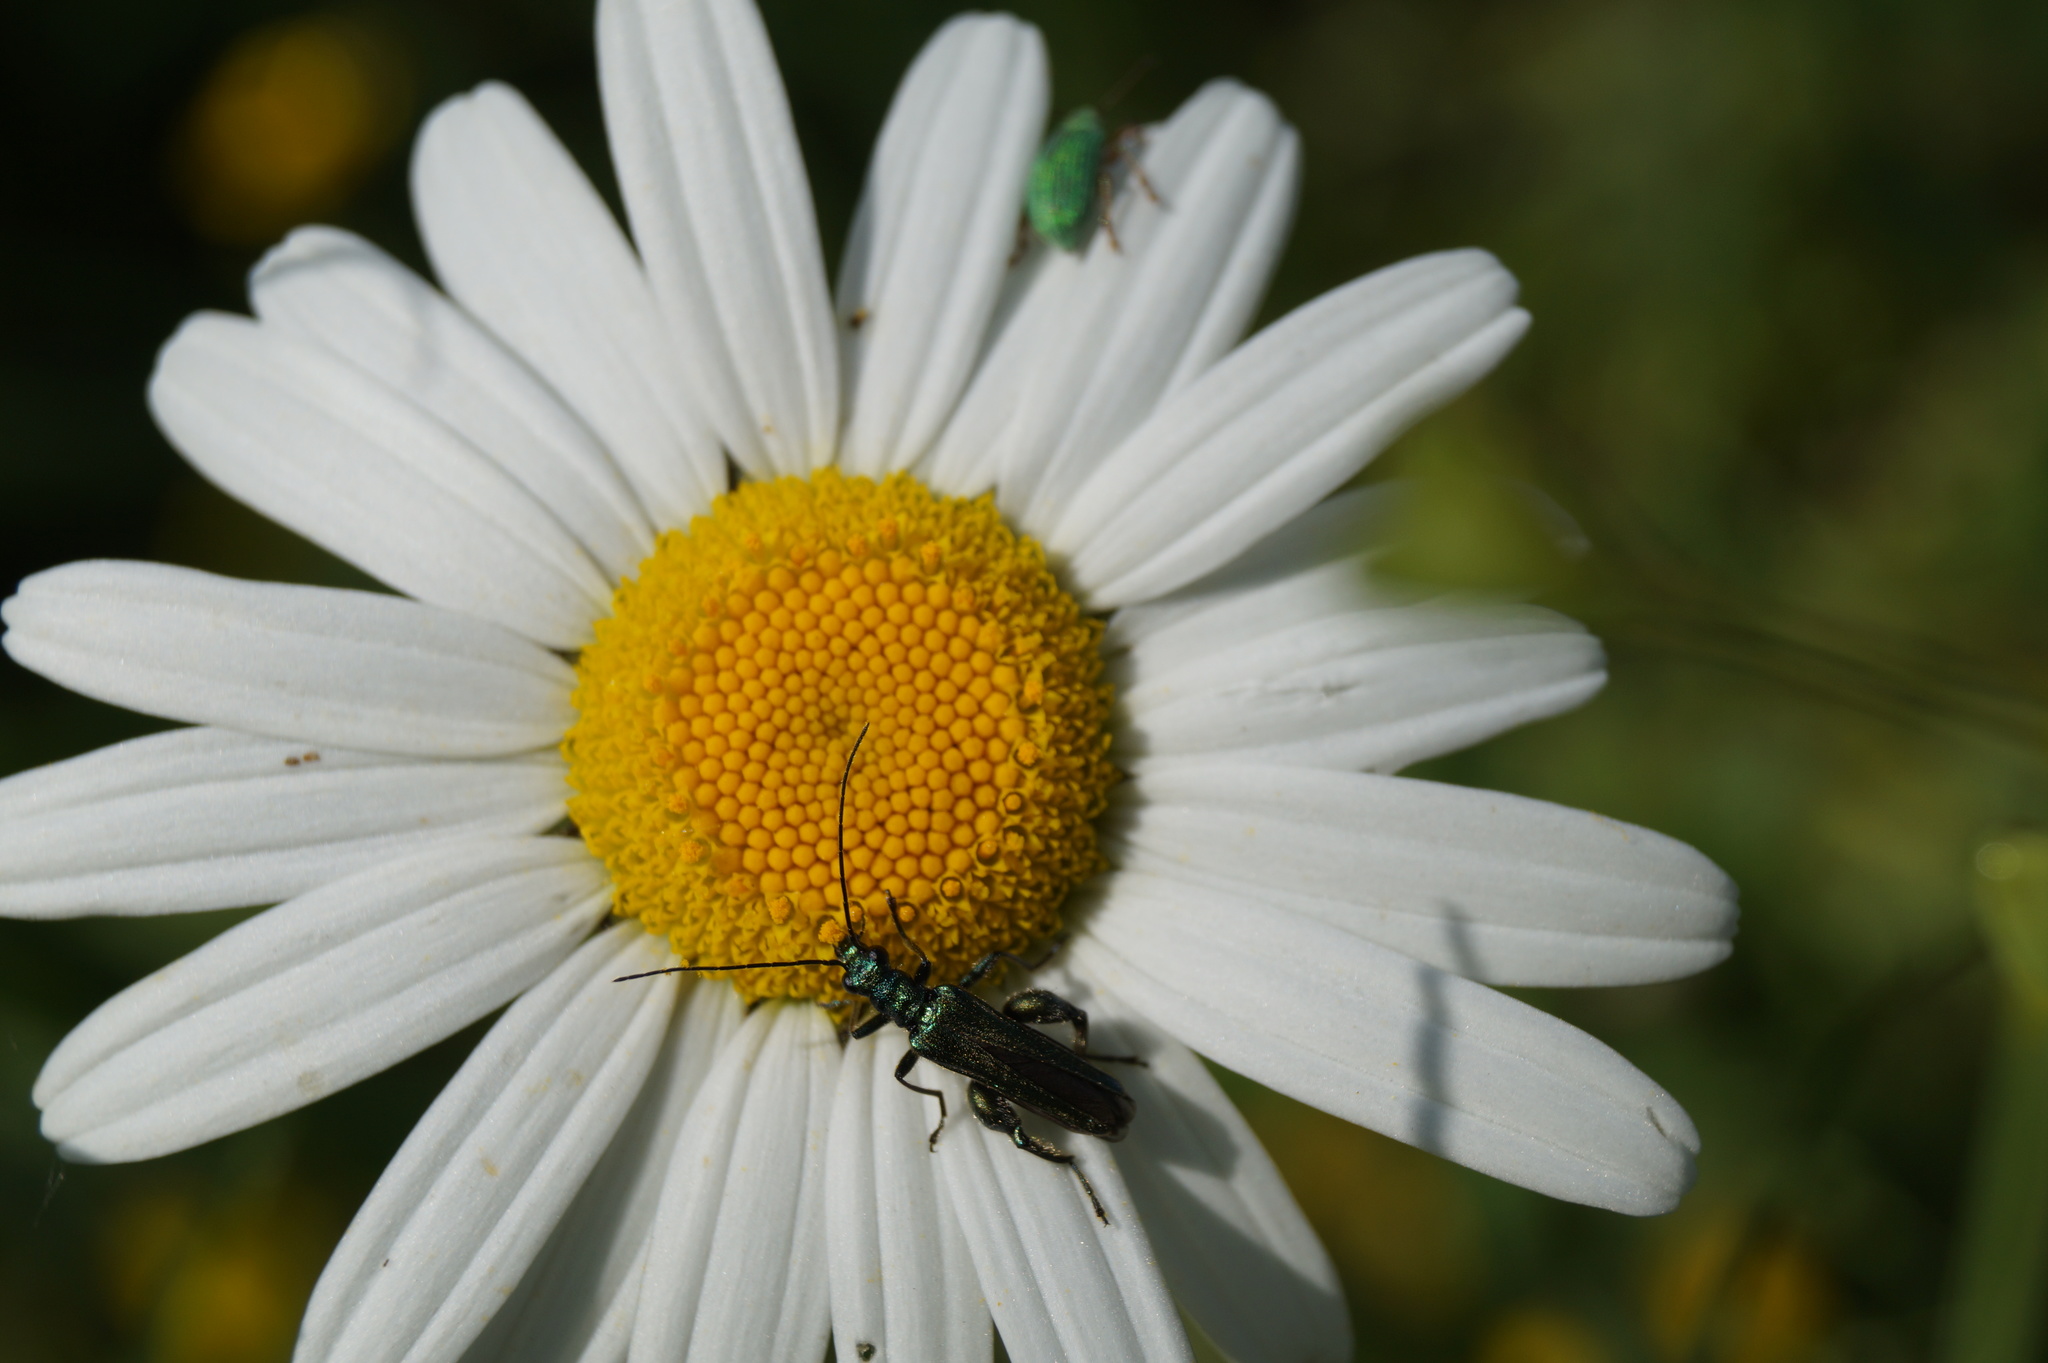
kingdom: Animalia
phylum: Arthropoda
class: Insecta
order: Coleoptera
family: Oedemeridae
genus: Oedemera
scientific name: Oedemera nobilis
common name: Swollen-thighed beetle
